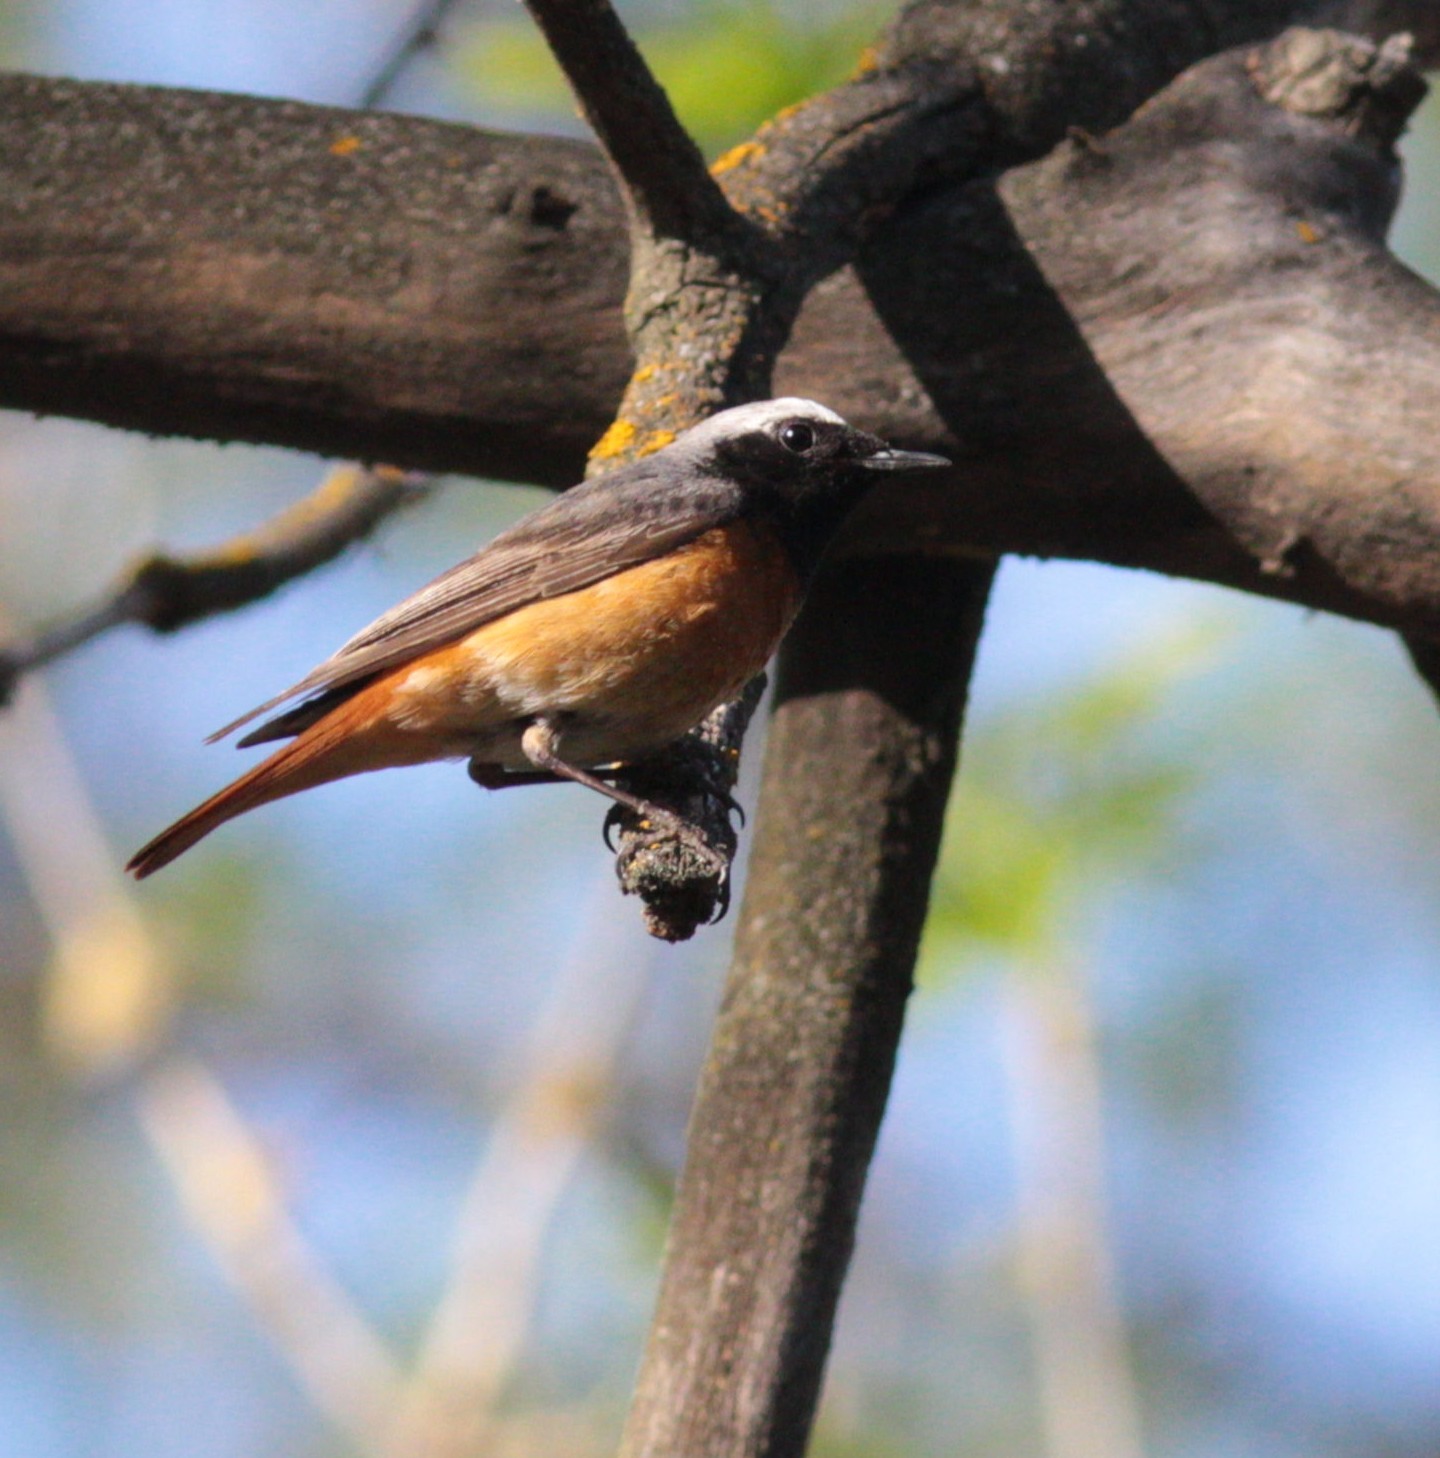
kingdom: Animalia
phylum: Chordata
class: Aves
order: Passeriformes
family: Muscicapidae
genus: Phoenicurus
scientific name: Phoenicurus phoenicurus
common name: Common redstart
